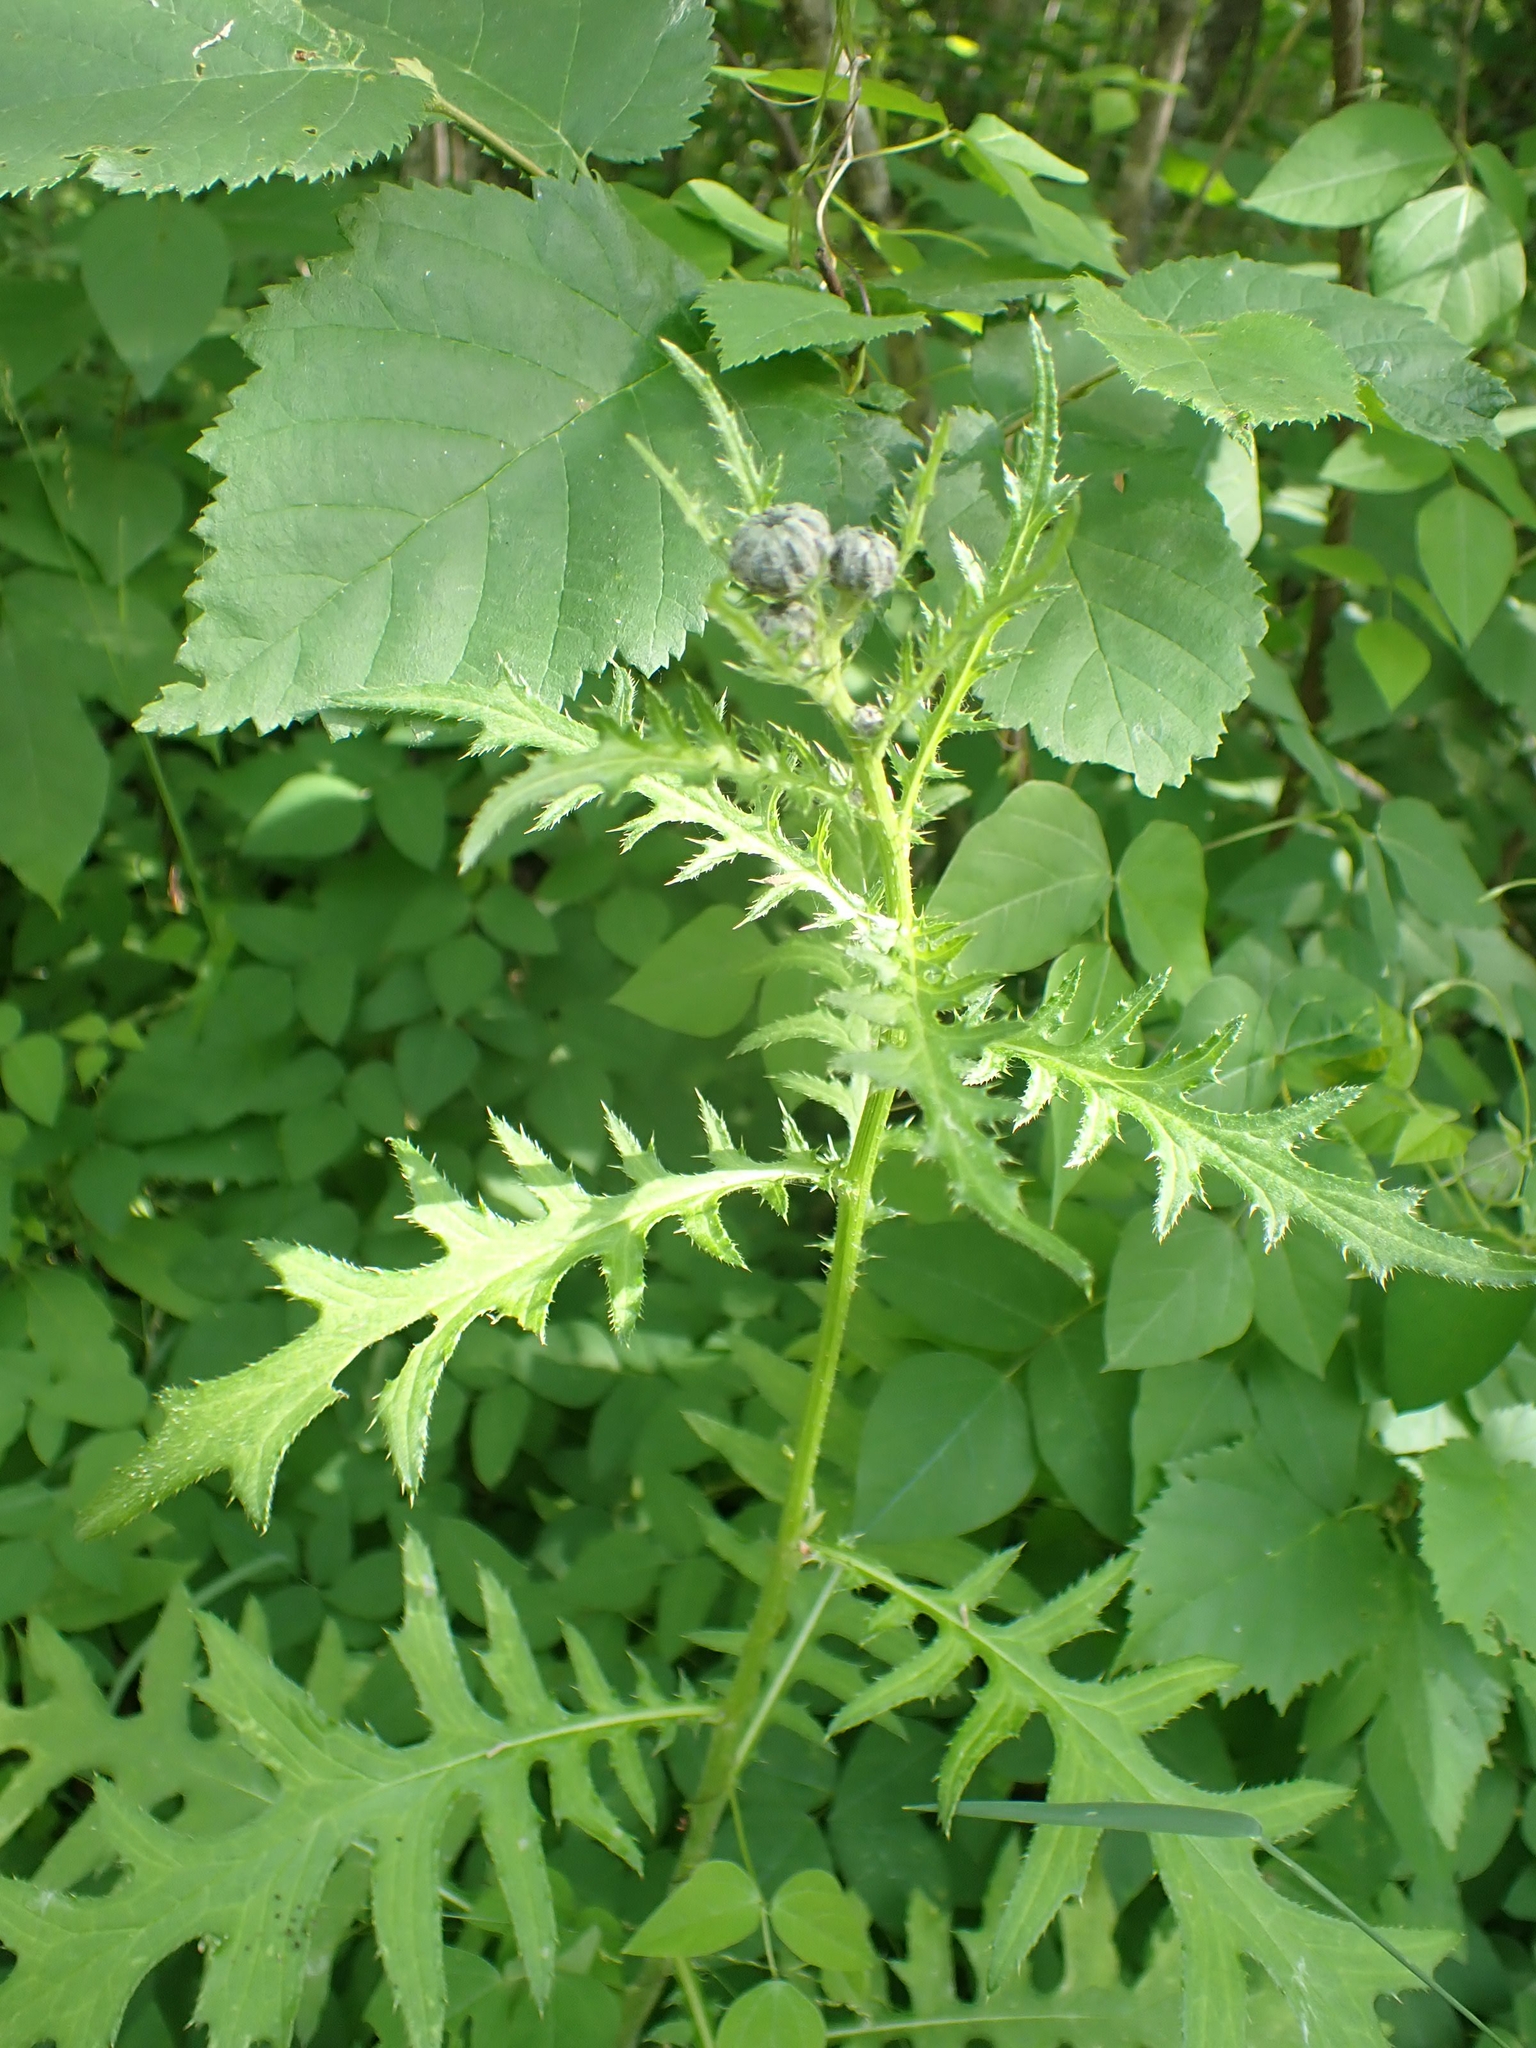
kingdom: Plantae
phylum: Tracheophyta
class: Magnoliopsida
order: Asterales
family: Asteraceae
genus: Cirsium
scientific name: Cirsium muticum
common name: Dunce-nettle
